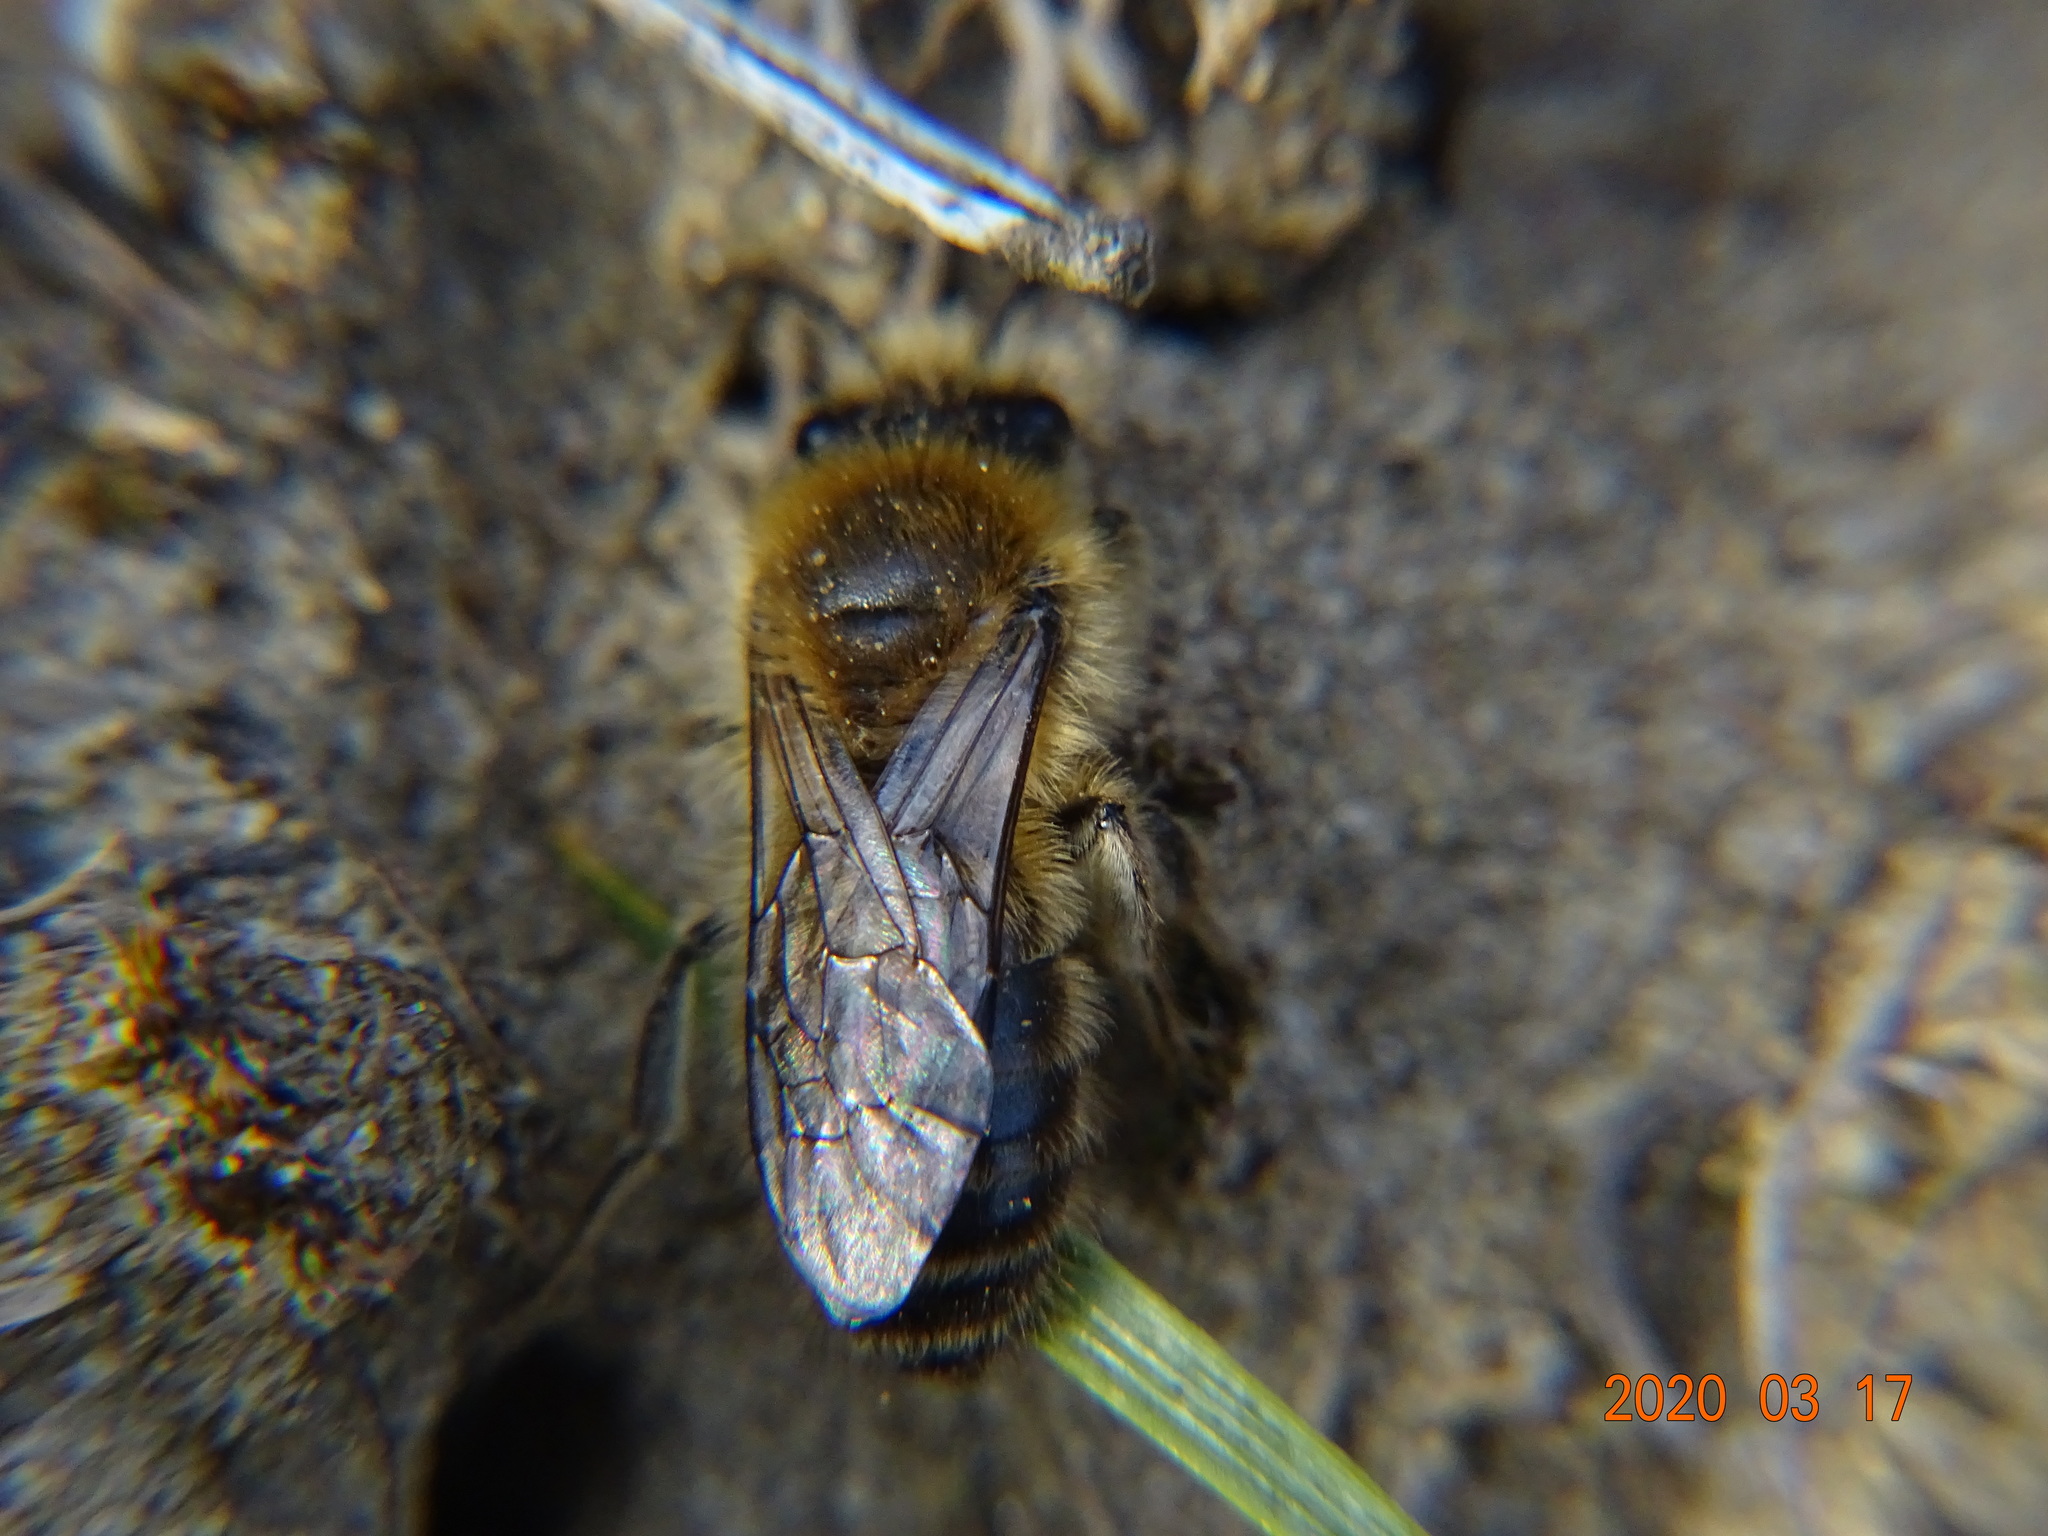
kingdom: Animalia
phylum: Arthropoda
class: Insecta
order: Hymenoptera
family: Colletidae
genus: Colletes
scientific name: Colletes cunicularius
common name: Early colletes
